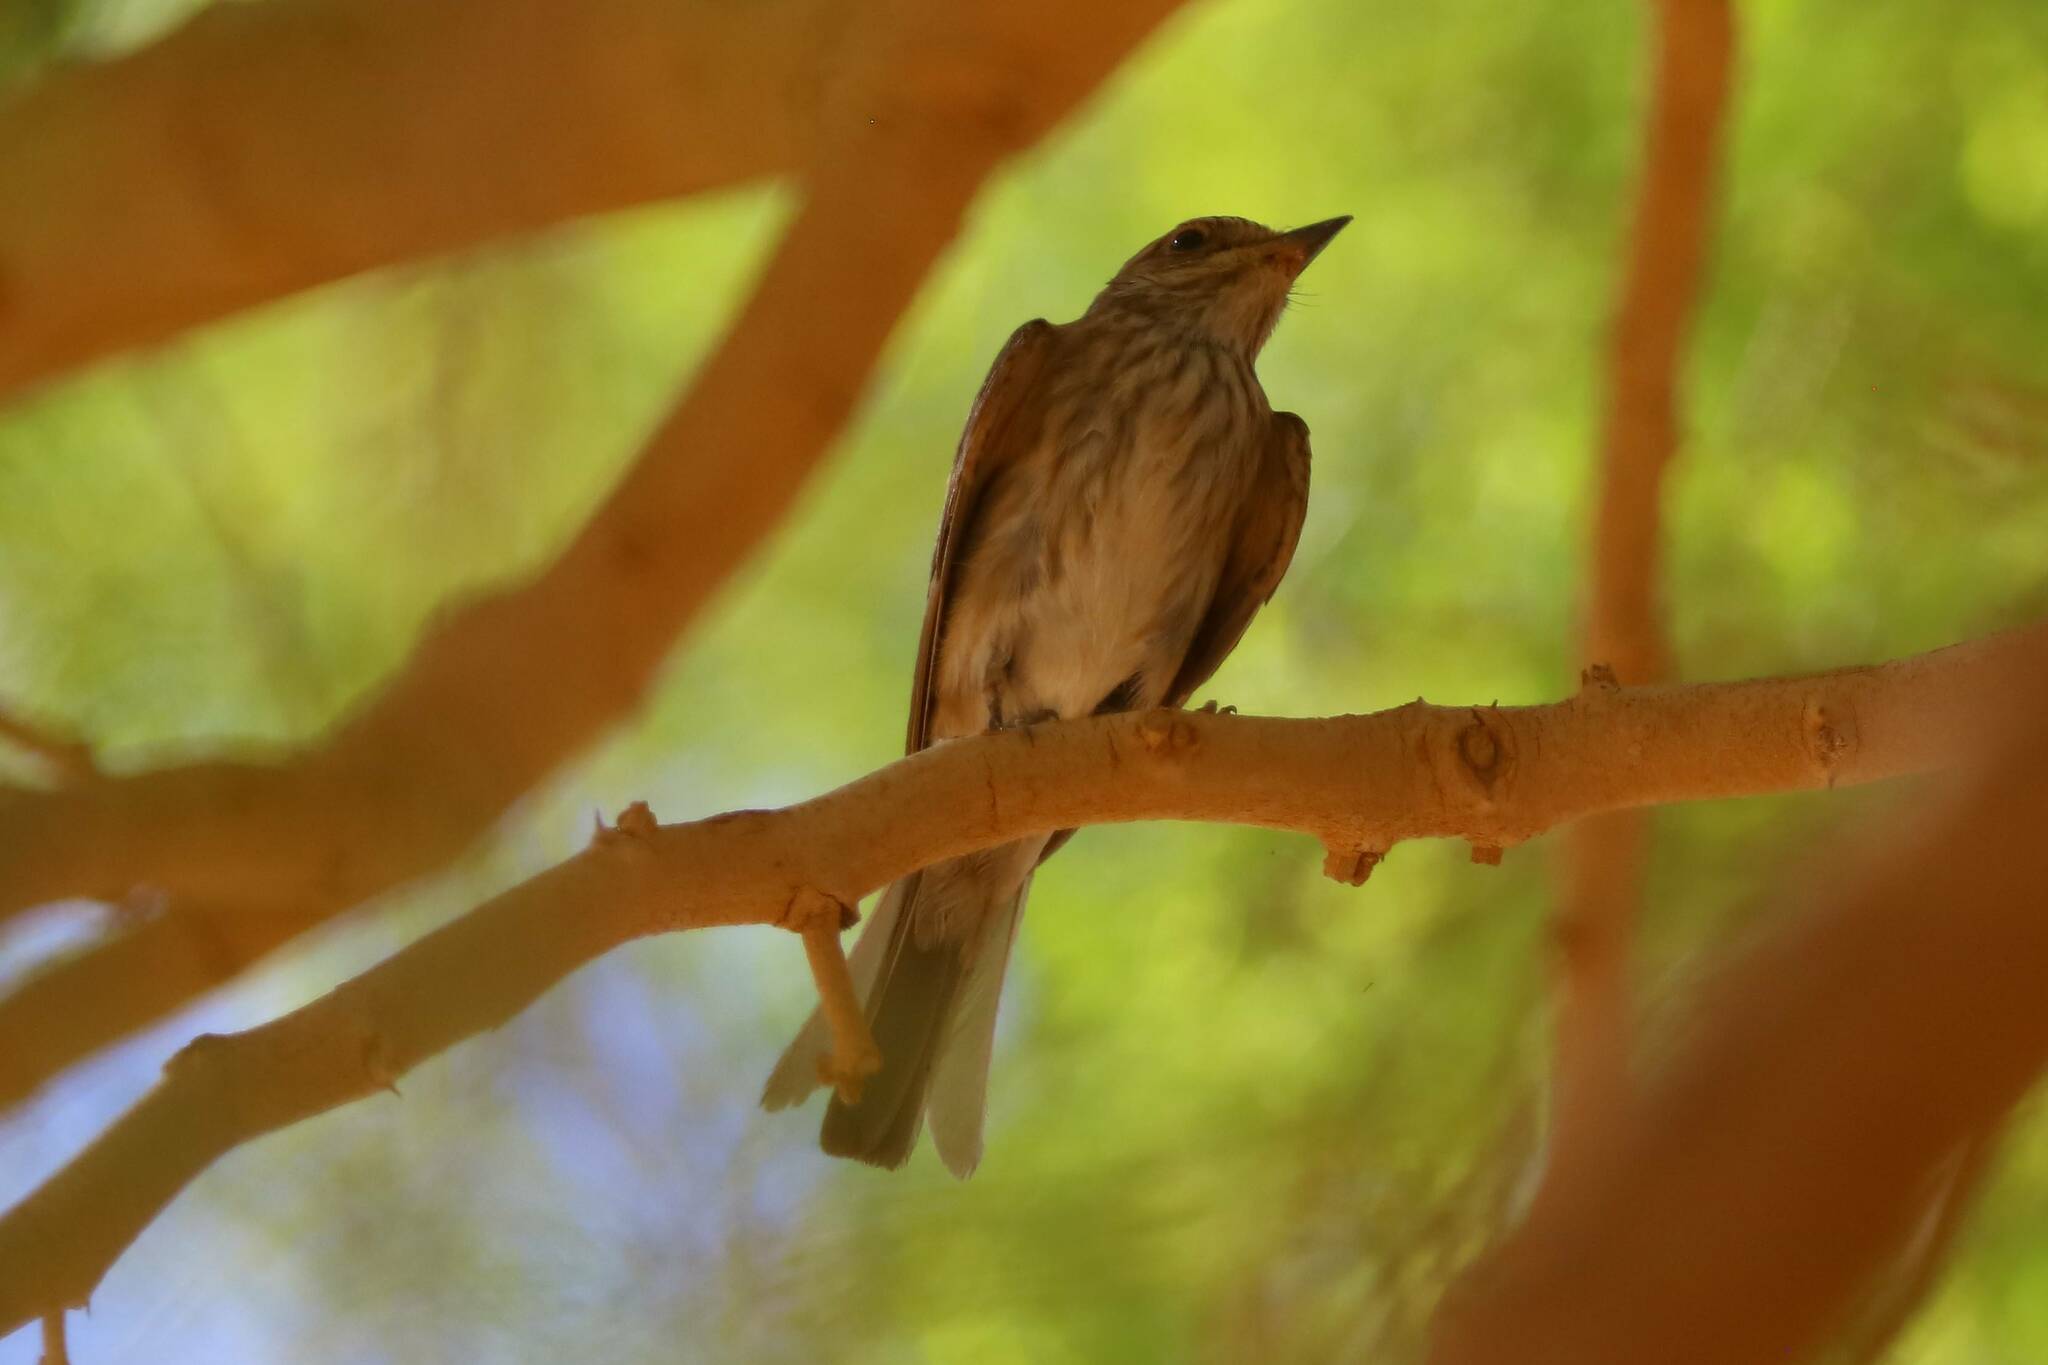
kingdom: Animalia
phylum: Chordata
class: Aves
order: Passeriformes
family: Muscicapidae
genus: Muscicapa
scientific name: Muscicapa striata
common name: Spotted flycatcher
